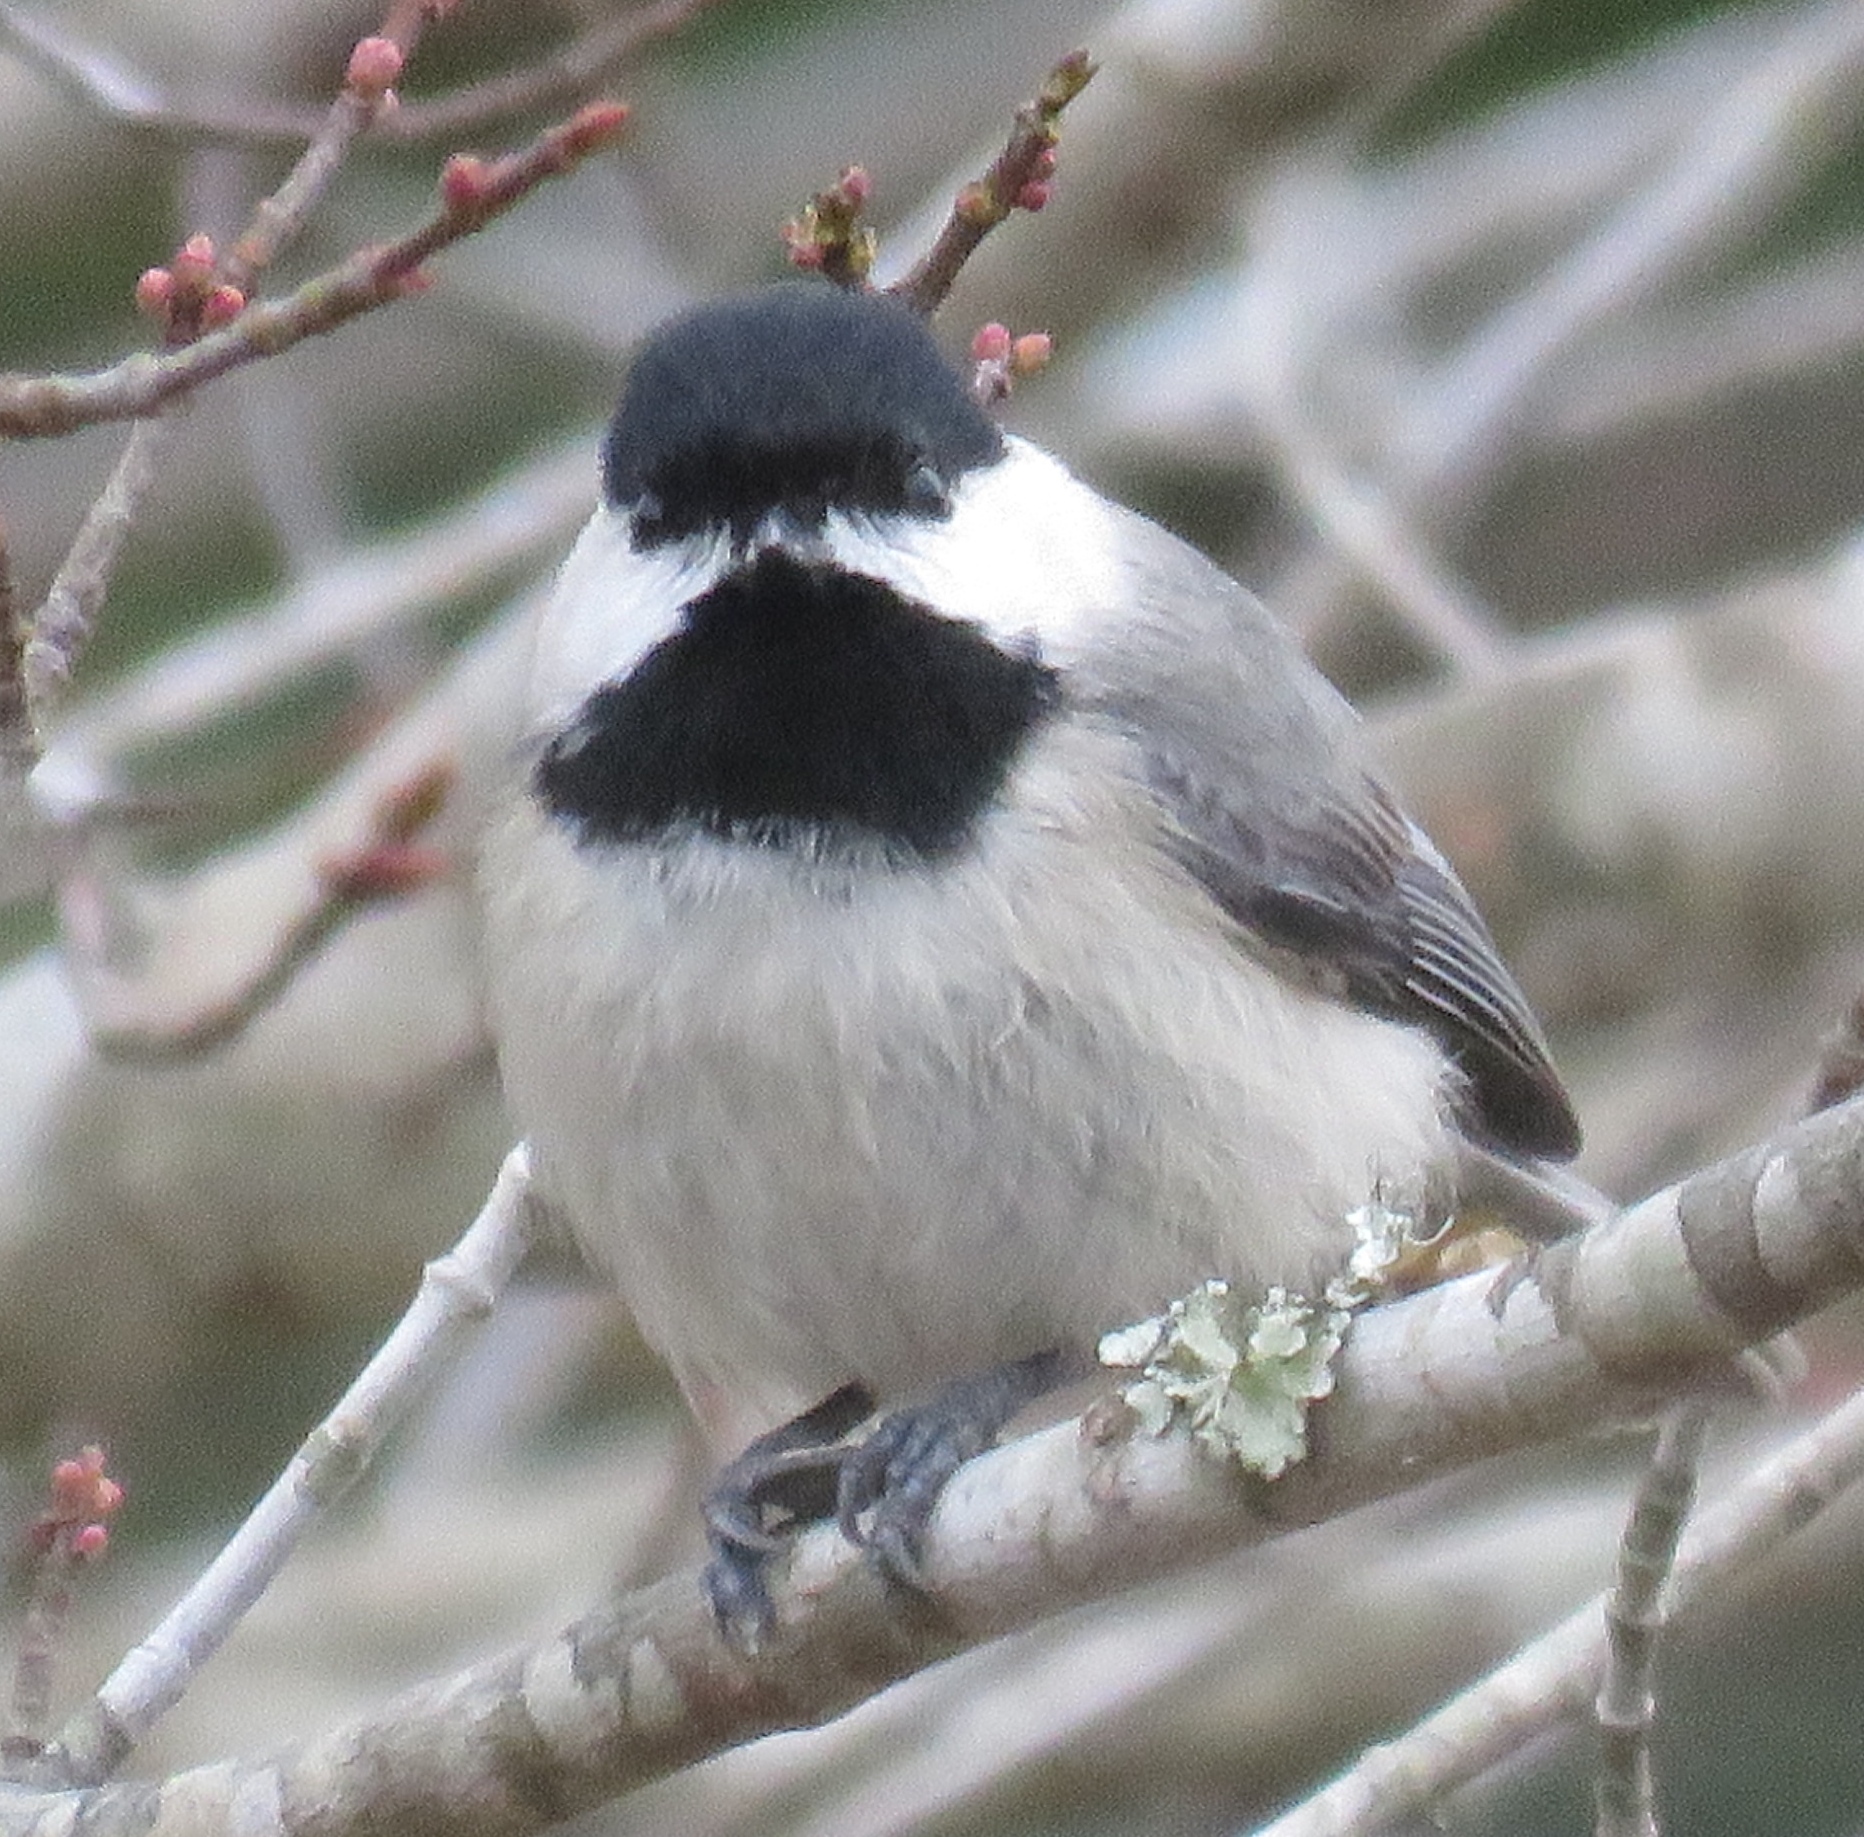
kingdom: Animalia
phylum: Chordata
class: Aves
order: Passeriformes
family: Paridae
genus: Poecile
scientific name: Poecile carolinensis
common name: Carolina chickadee
